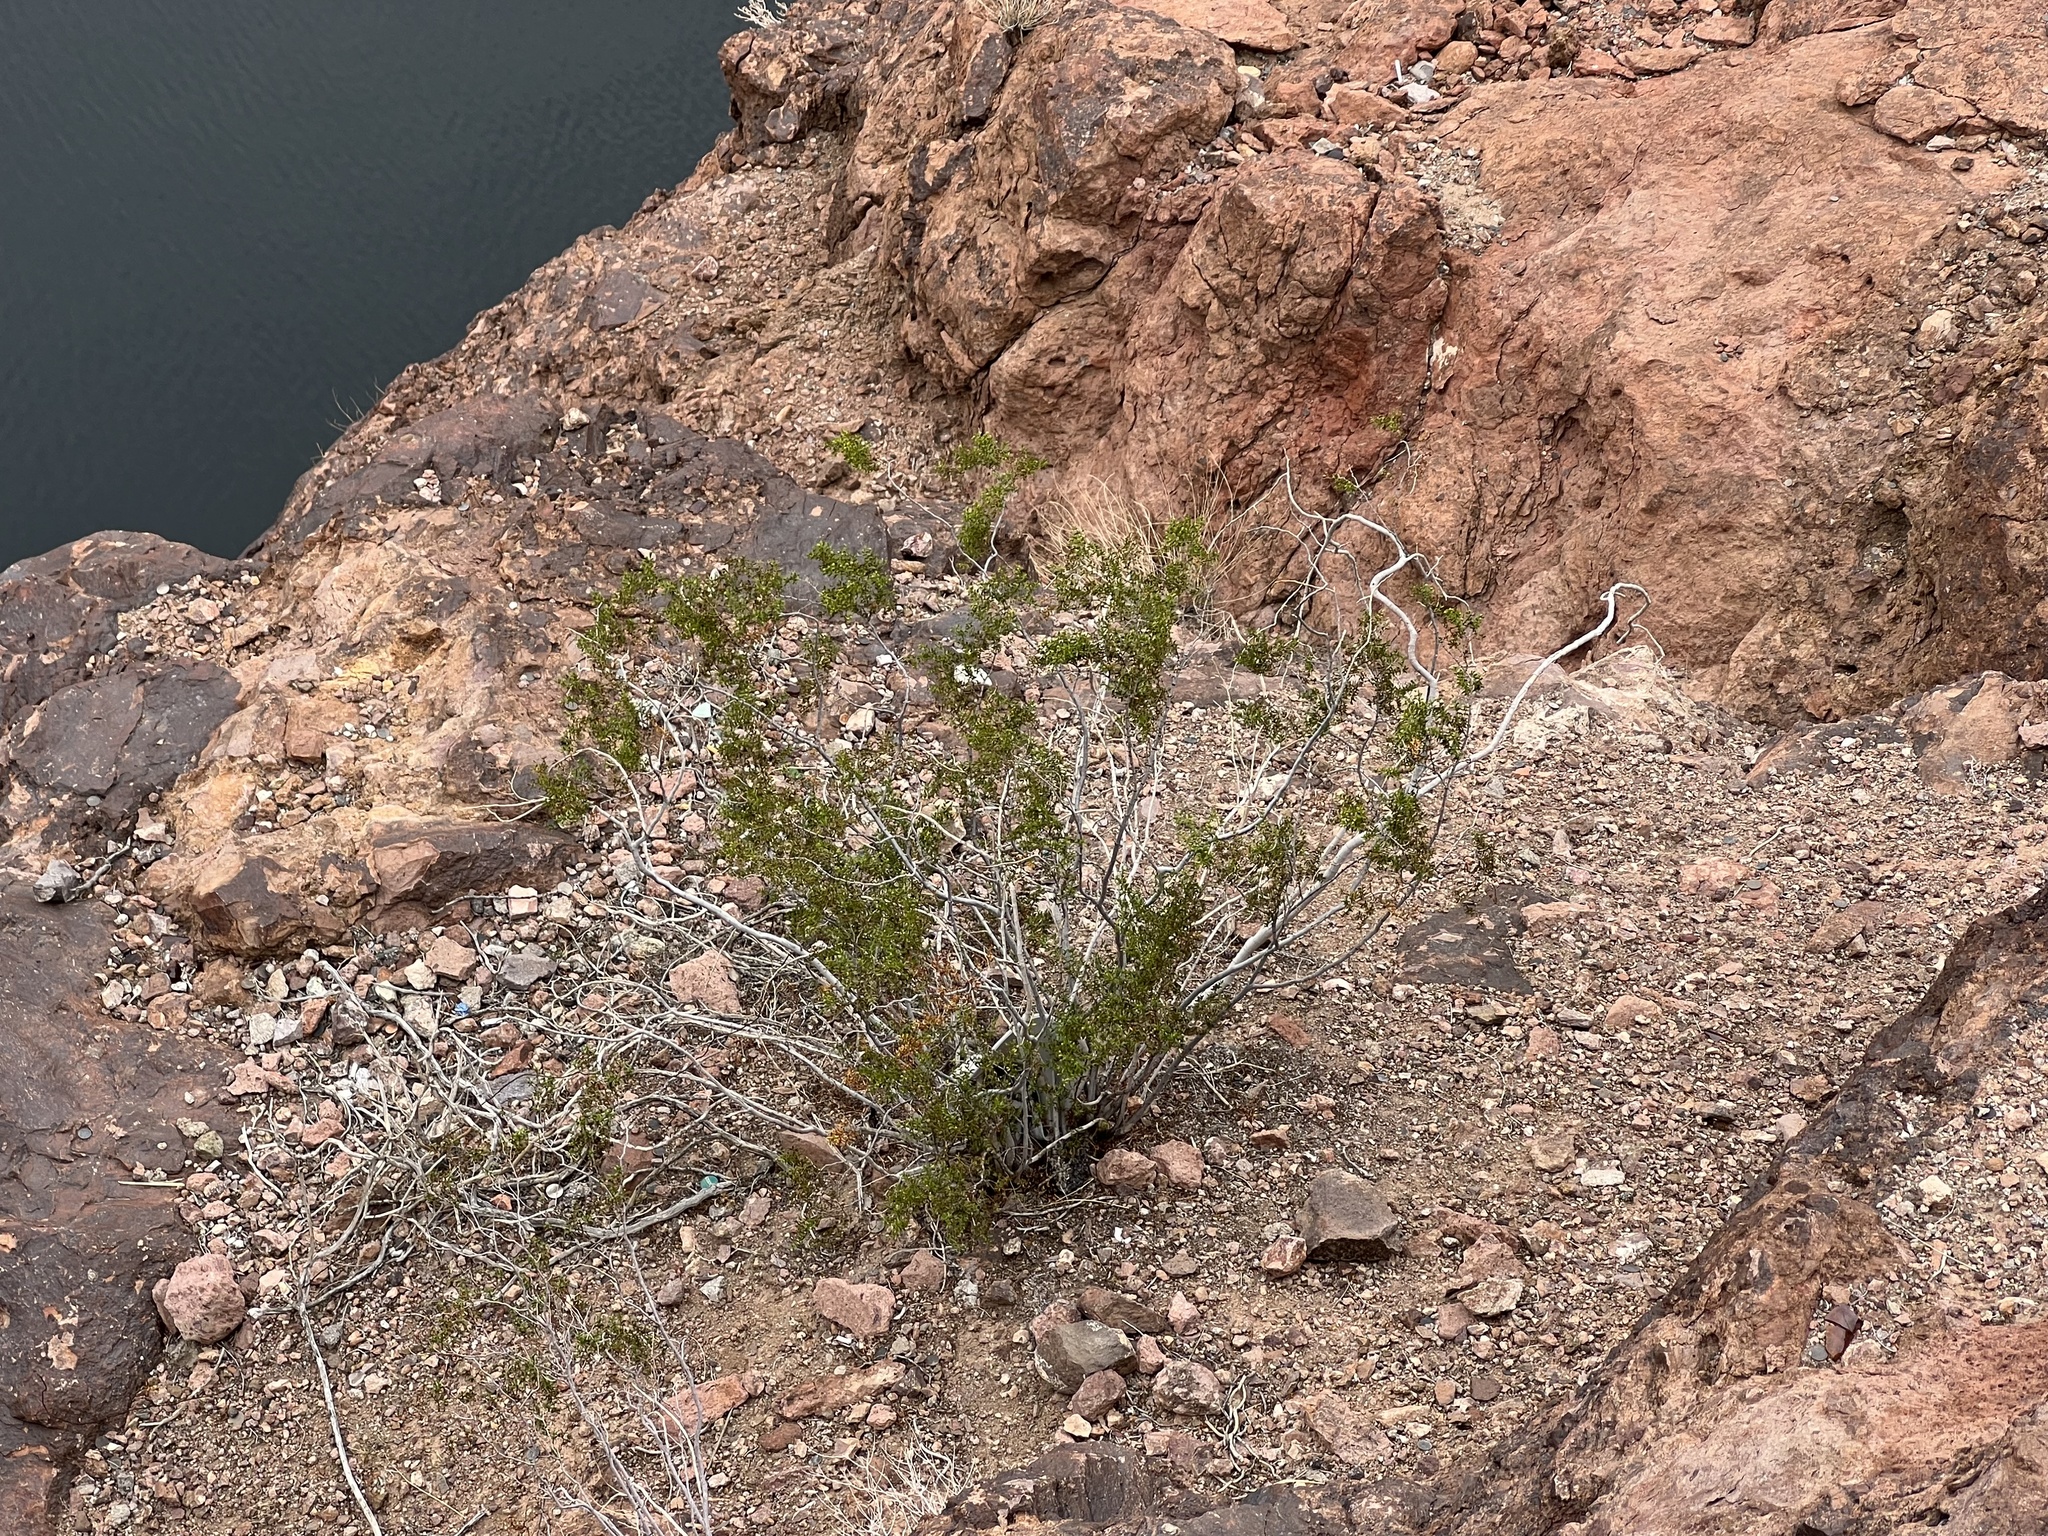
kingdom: Plantae
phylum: Tracheophyta
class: Magnoliopsida
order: Zygophyllales
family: Zygophyllaceae
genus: Larrea
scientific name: Larrea tridentata
